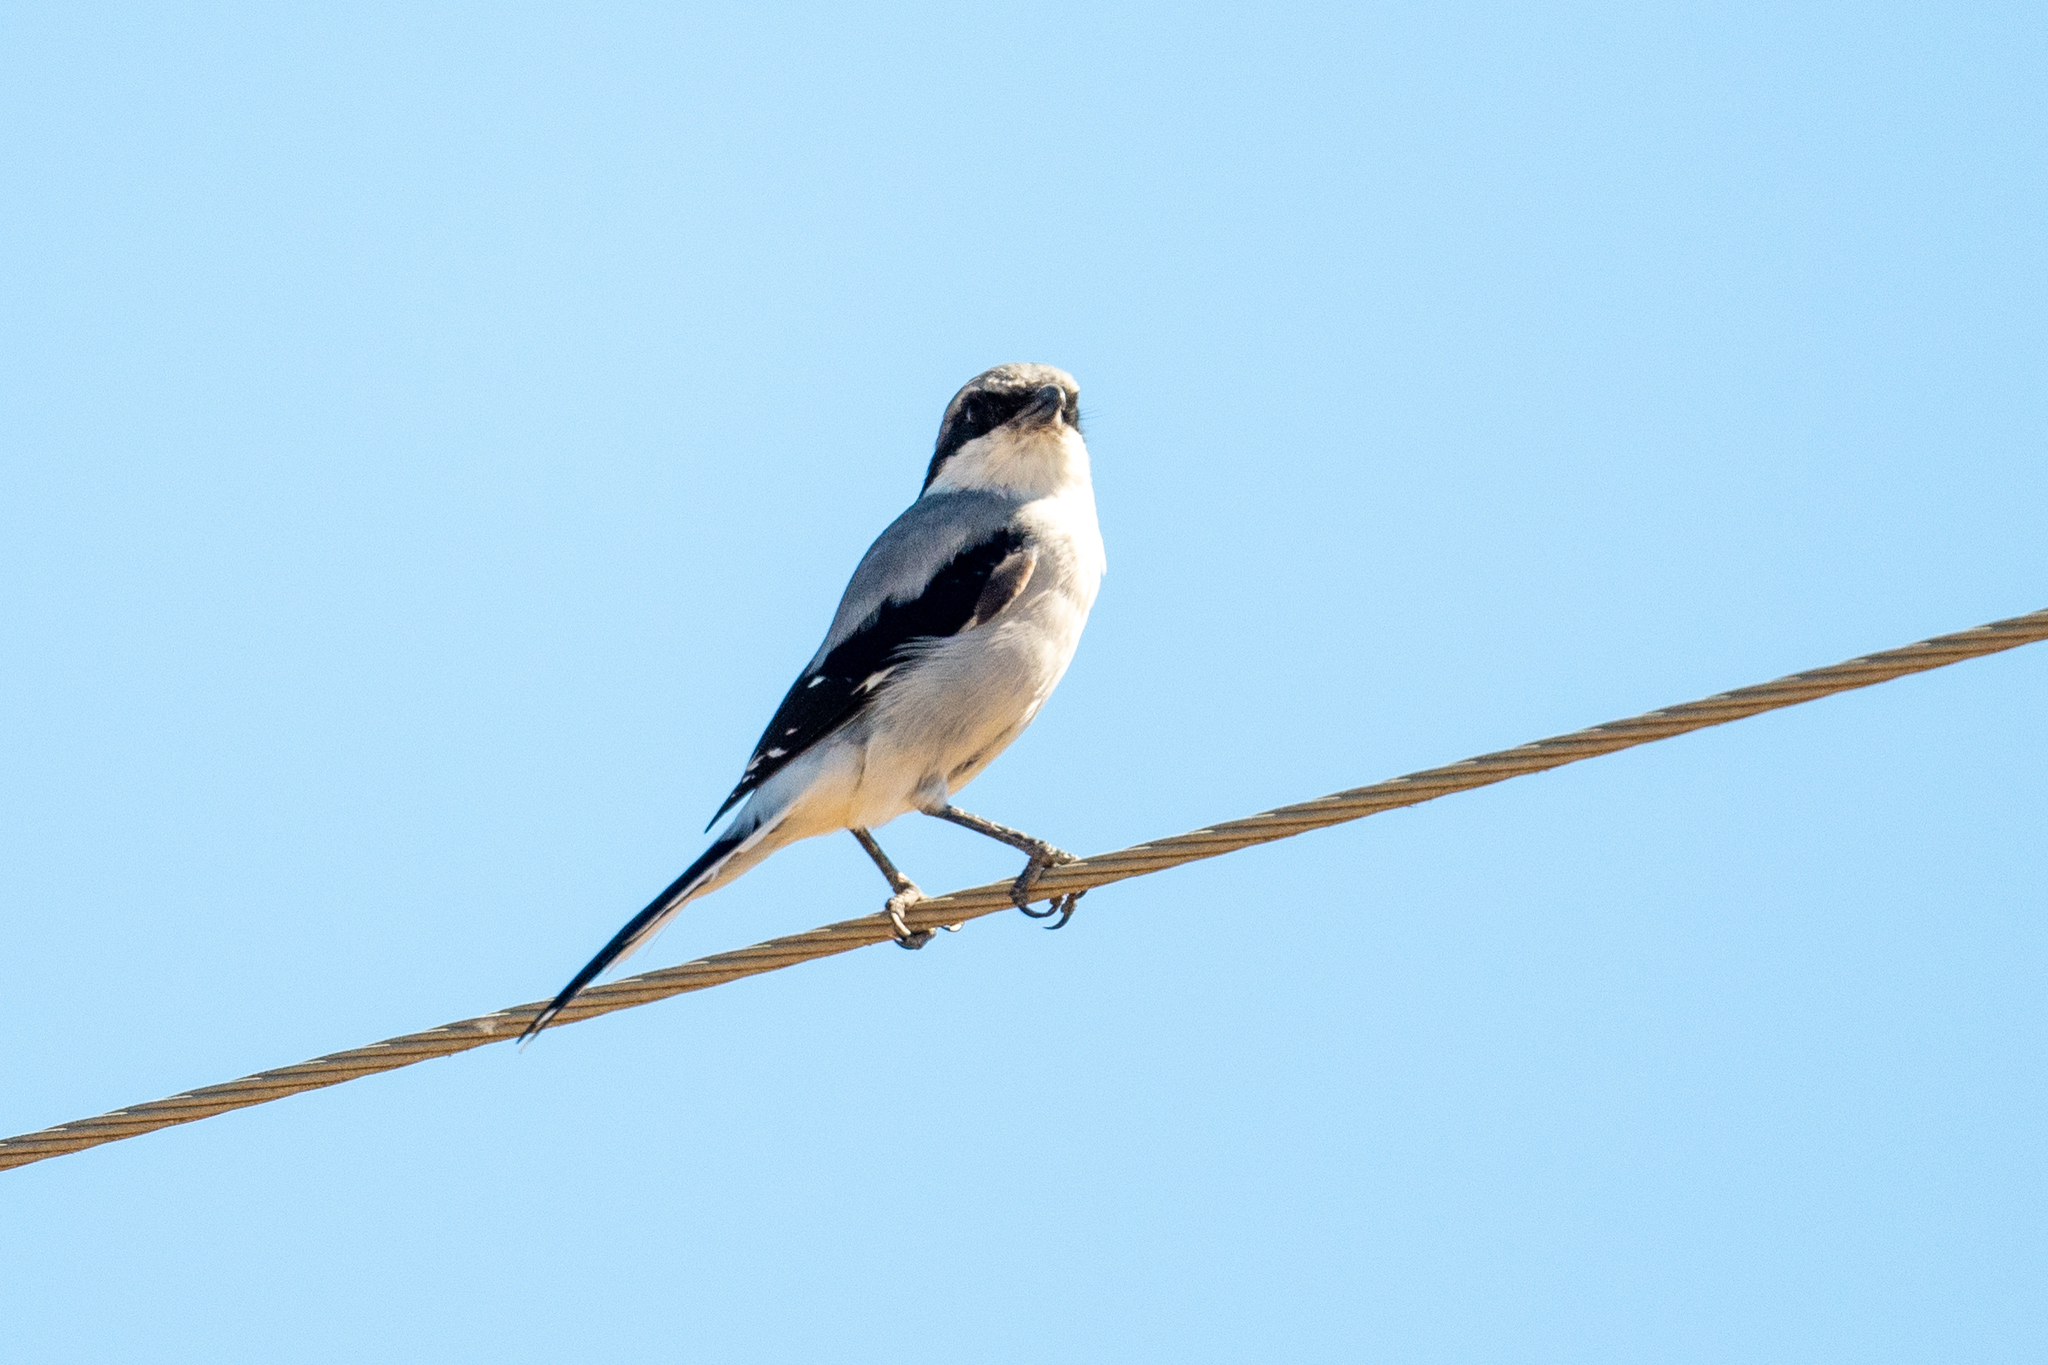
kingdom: Animalia
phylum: Chordata
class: Aves
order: Passeriformes
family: Laniidae
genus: Lanius
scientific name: Lanius ludovicianus
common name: Loggerhead shrike
